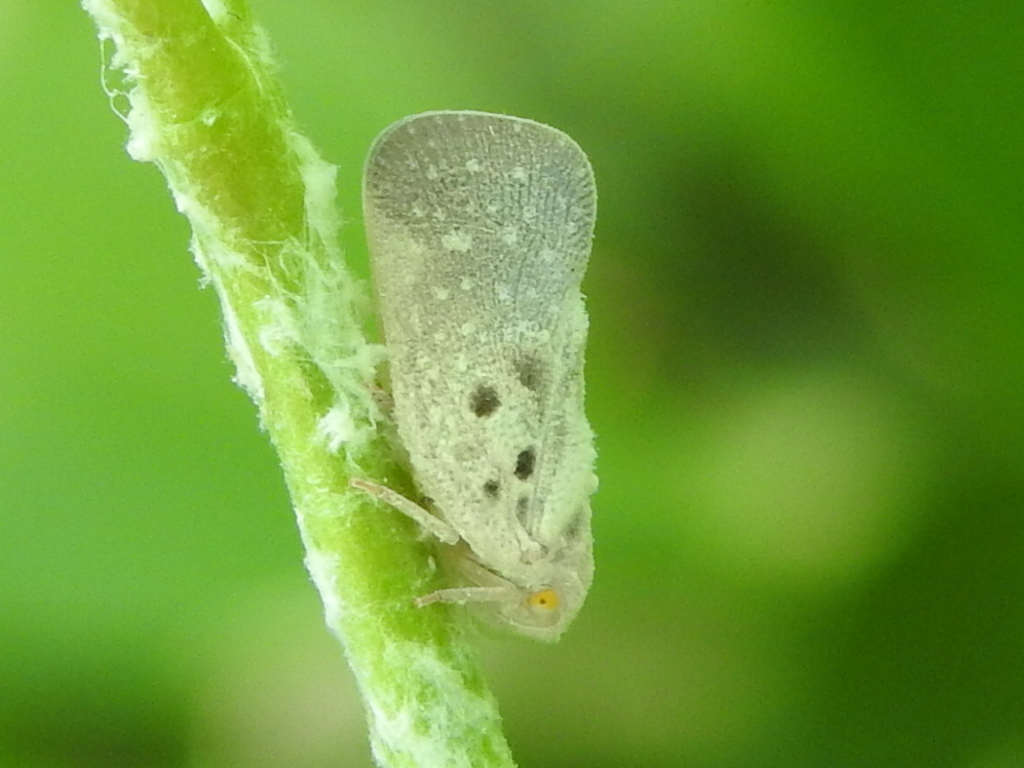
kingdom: Animalia
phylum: Arthropoda
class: Insecta
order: Hemiptera
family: Flatidae
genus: Metcalfa
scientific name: Metcalfa pruinosa
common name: Citrus flatid planthopper
